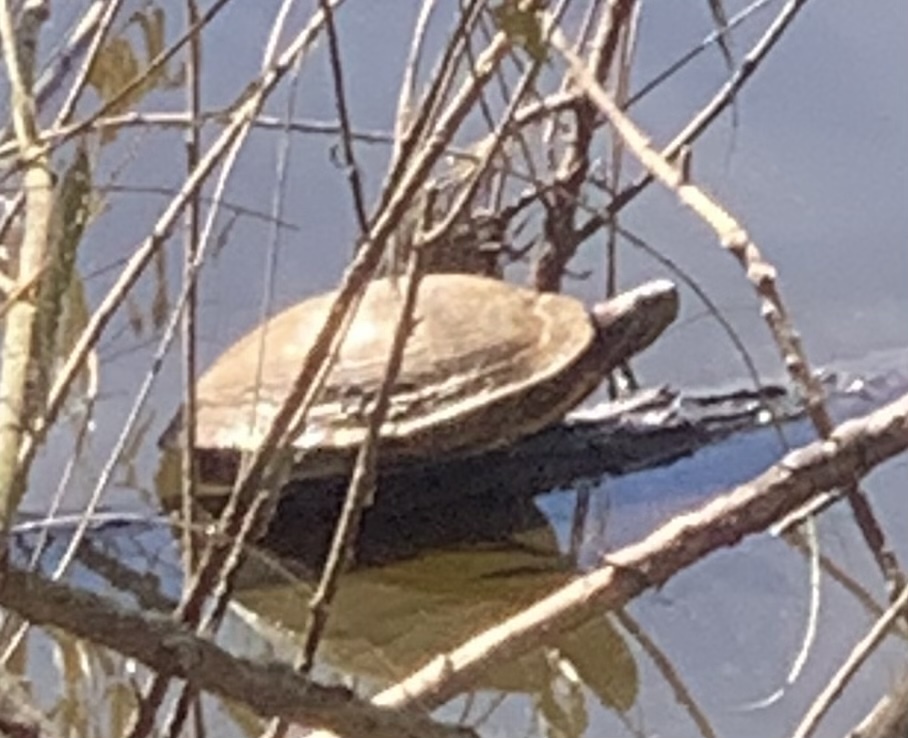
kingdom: Animalia
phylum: Chordata
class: Testudines
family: Emydidae
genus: Trachemys
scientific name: Trachemys scripta
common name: Slider
